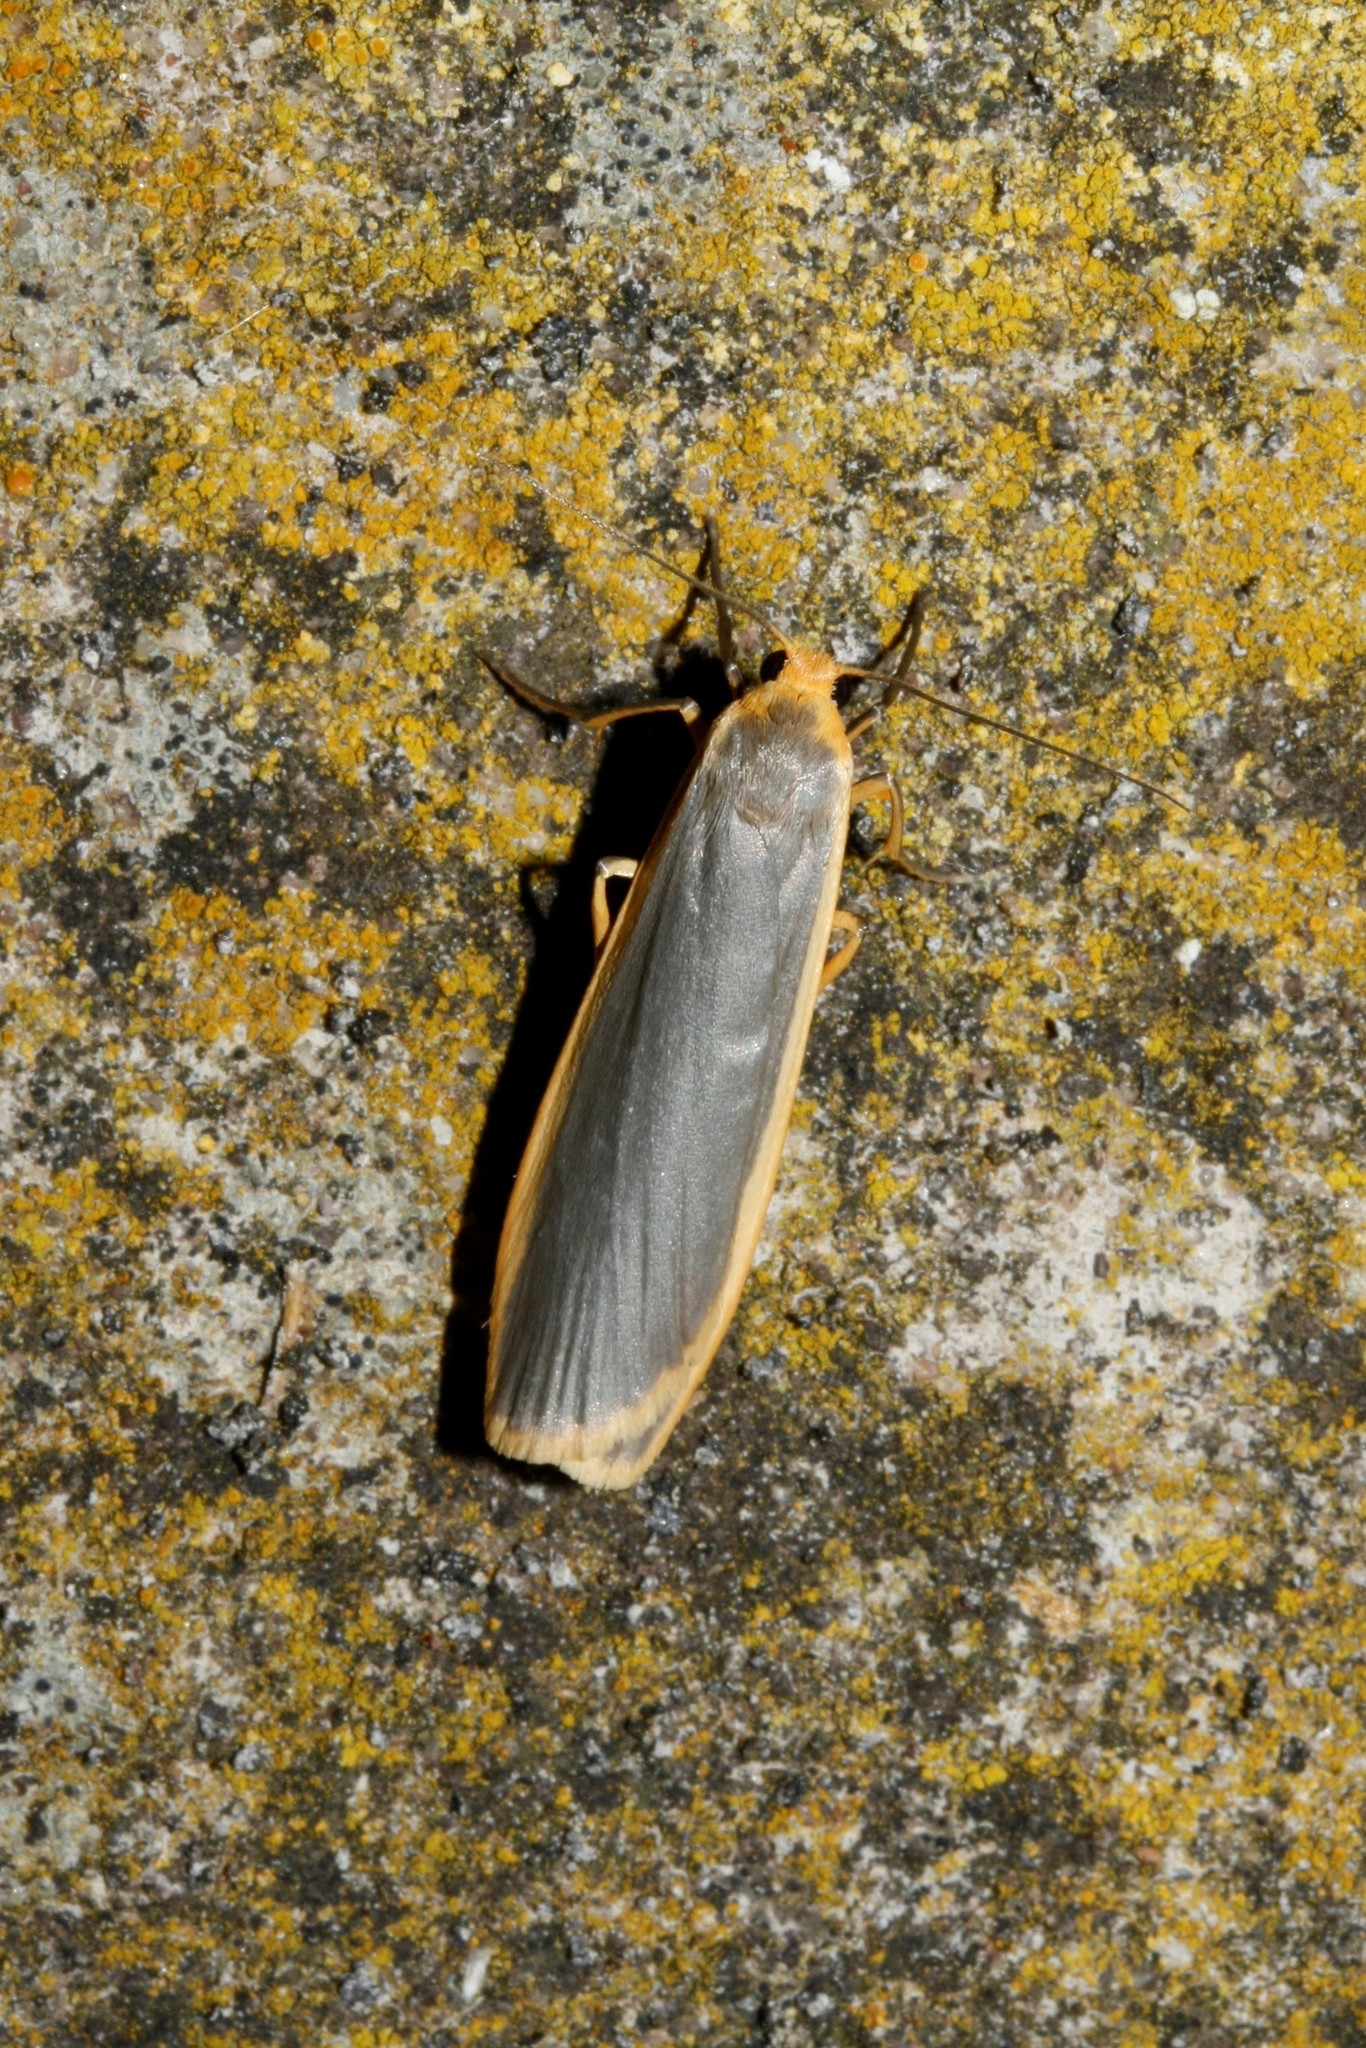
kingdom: Animalia
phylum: Arthropoda
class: Insecta
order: Lepidoptera
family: Erebidae
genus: Nyea
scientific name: Nyea lurideola
